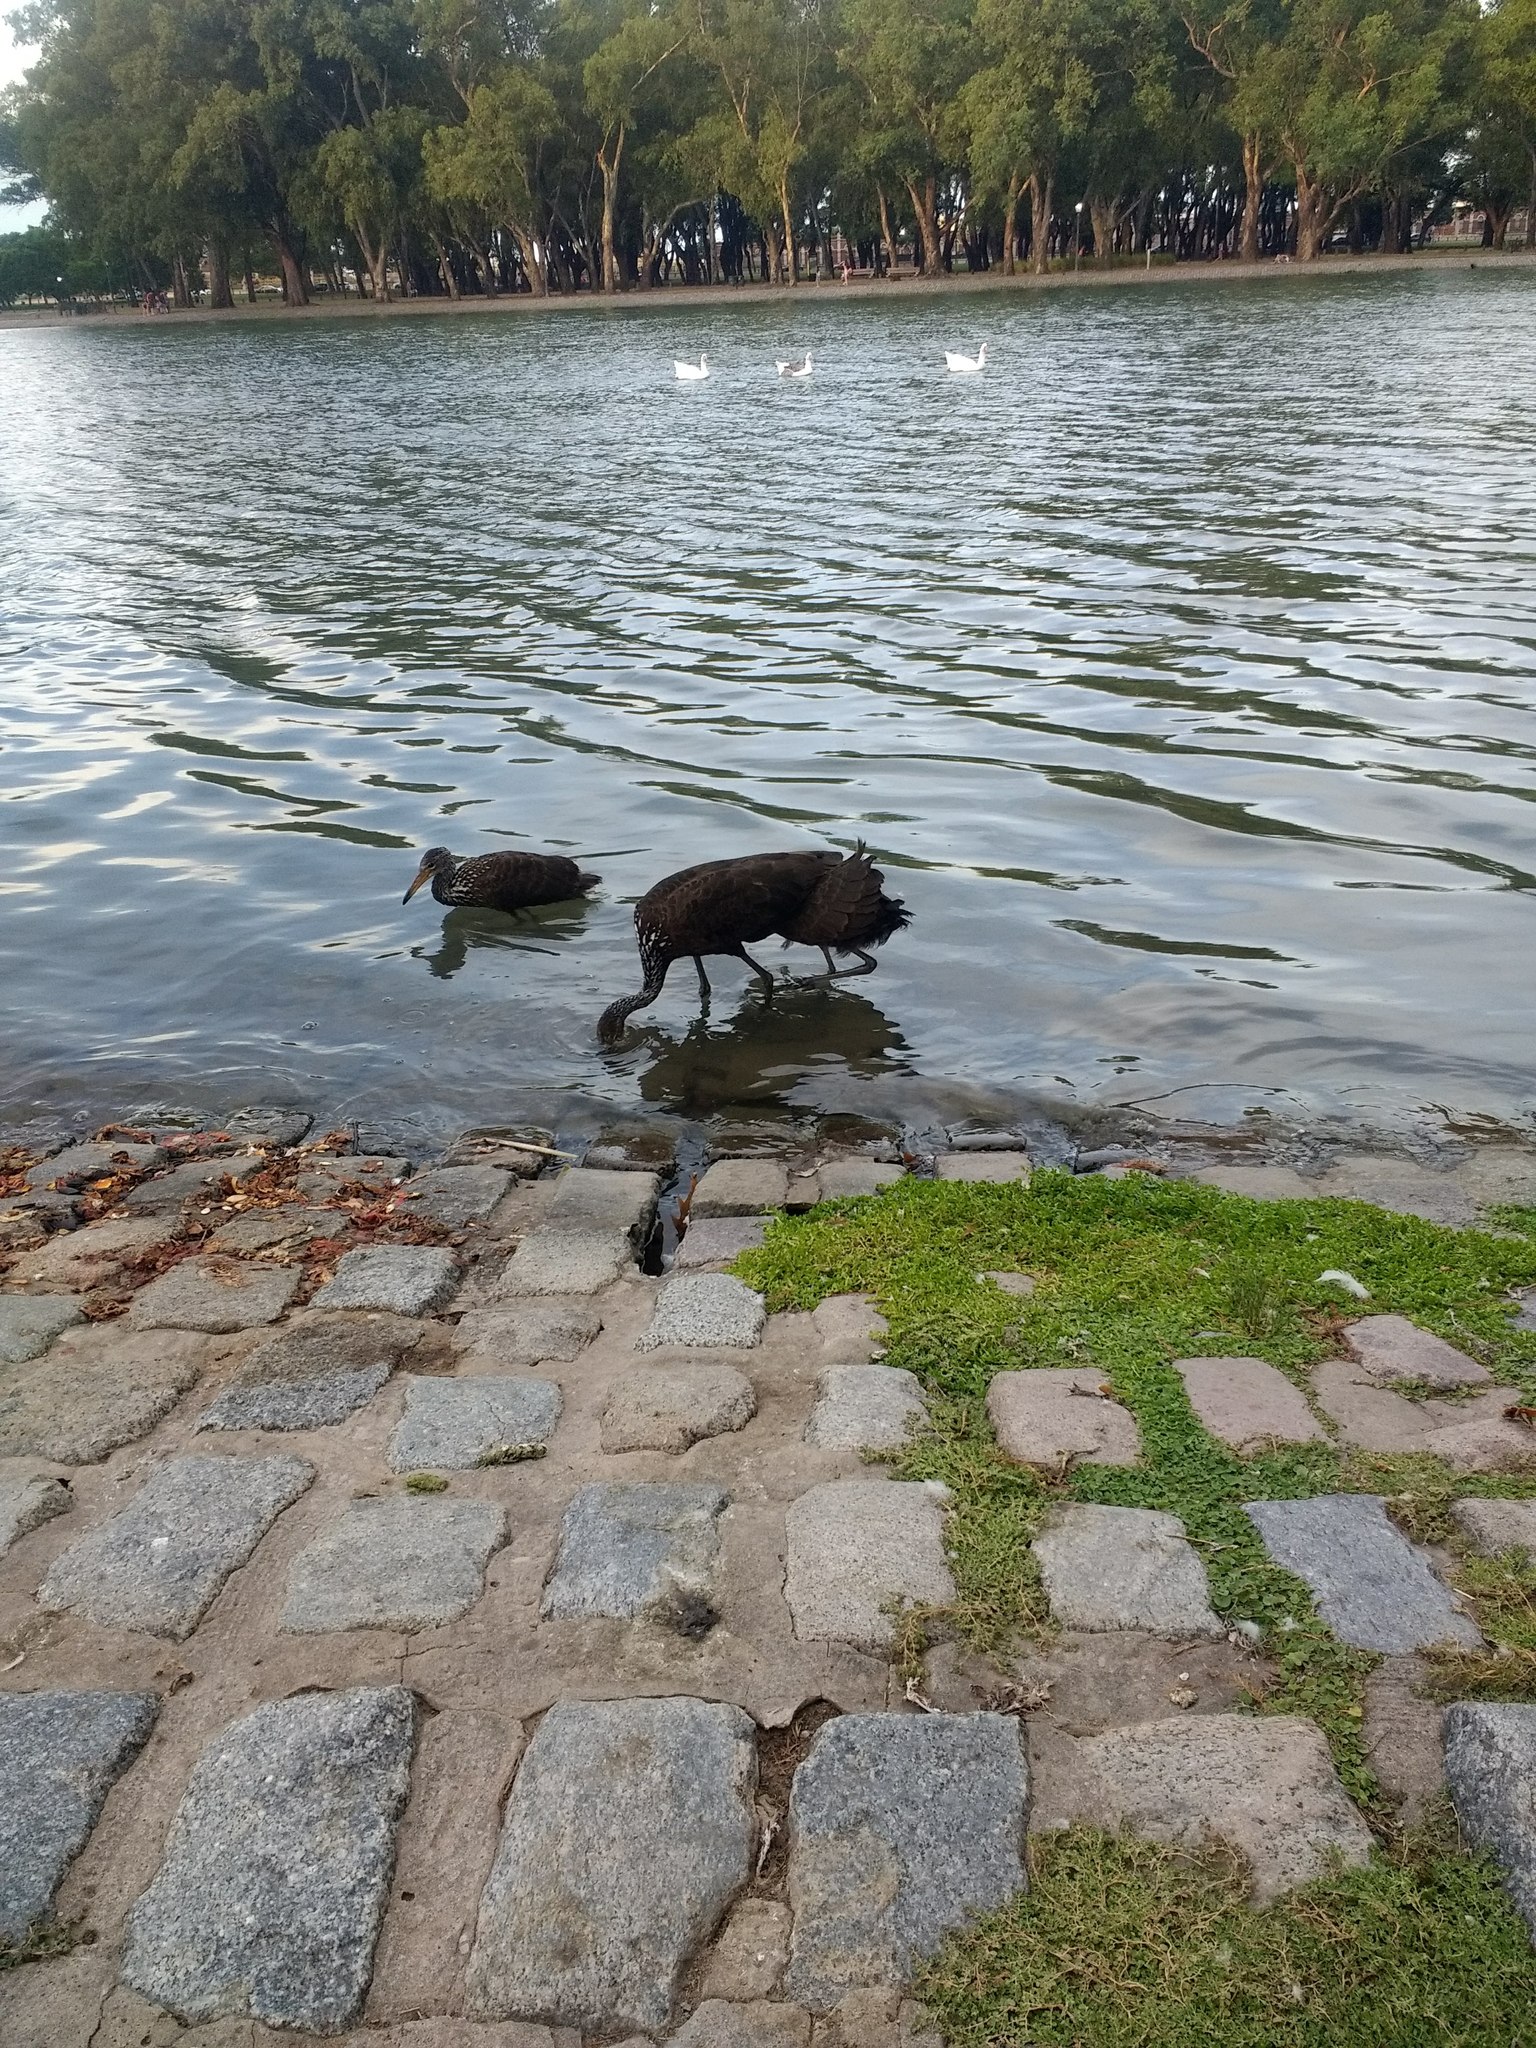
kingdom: Animalia
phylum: Chordata
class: Aves
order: Gruiformes
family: Aramidae
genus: Aramus
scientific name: Aramus guarauna
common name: Limpkin
